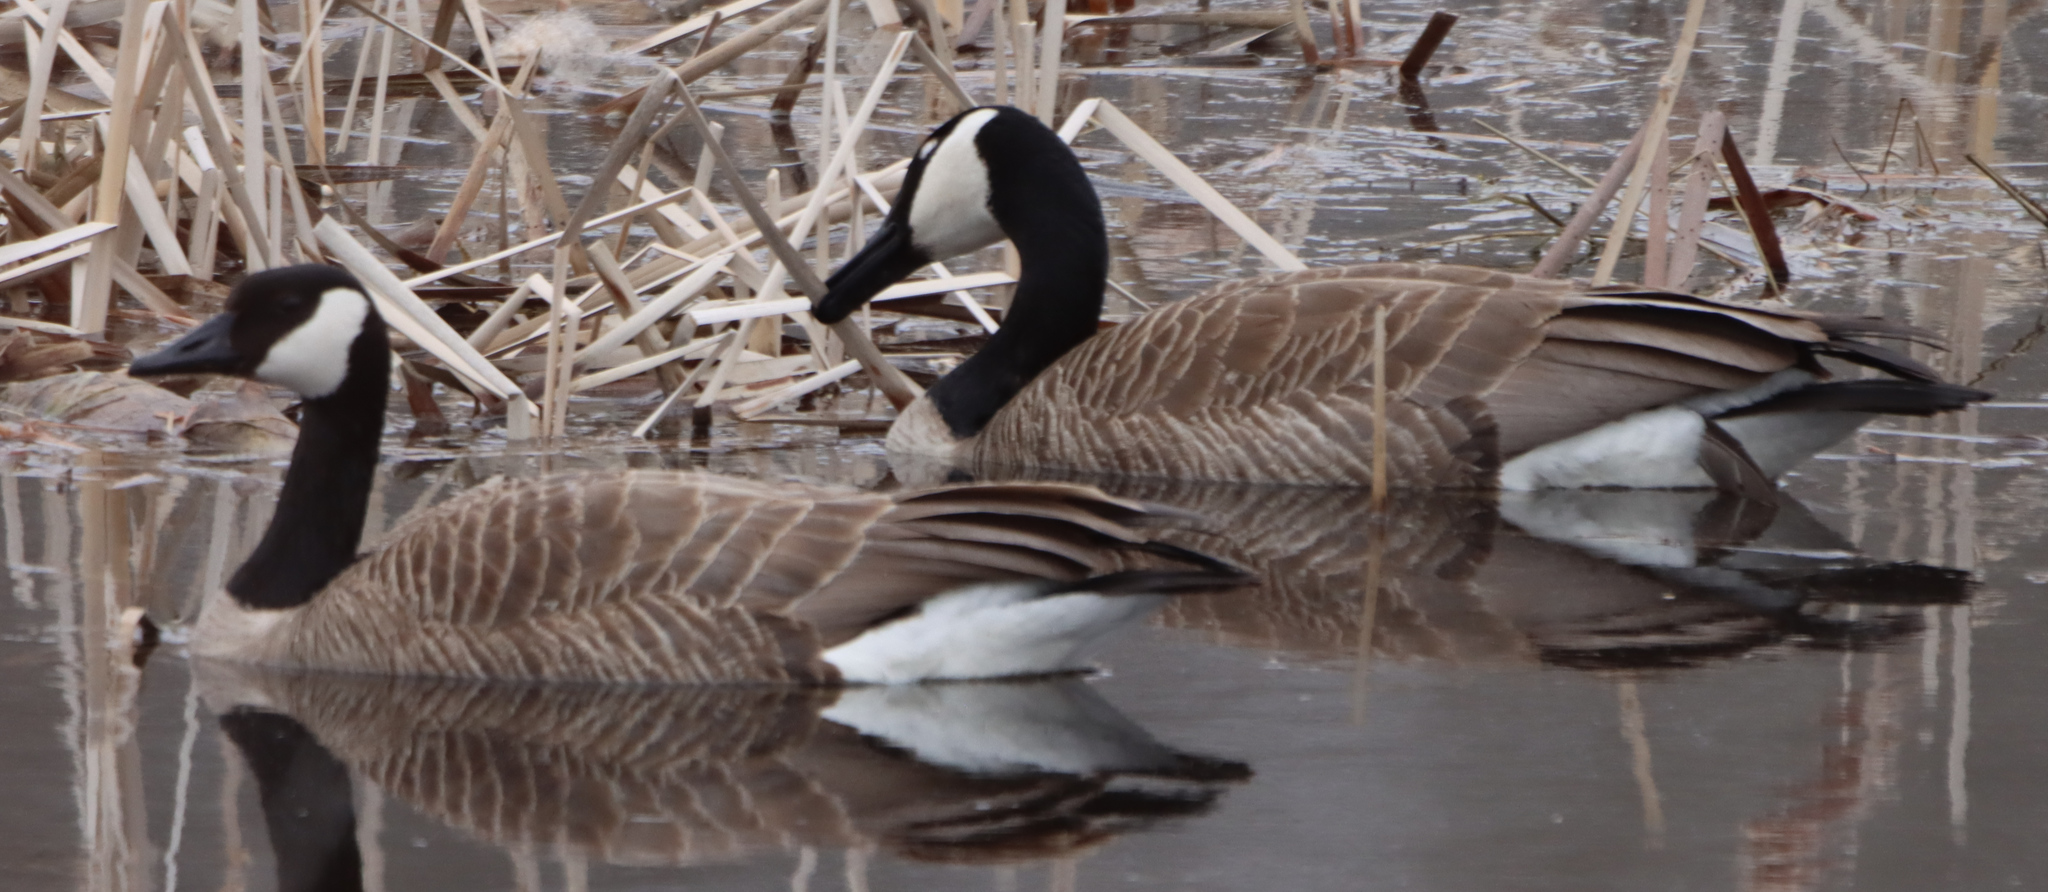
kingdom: Animalia
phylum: Chordata
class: Aves
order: Anseriformes
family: Anatidae
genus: Branta
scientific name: Branta canadensis
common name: Canada goose
